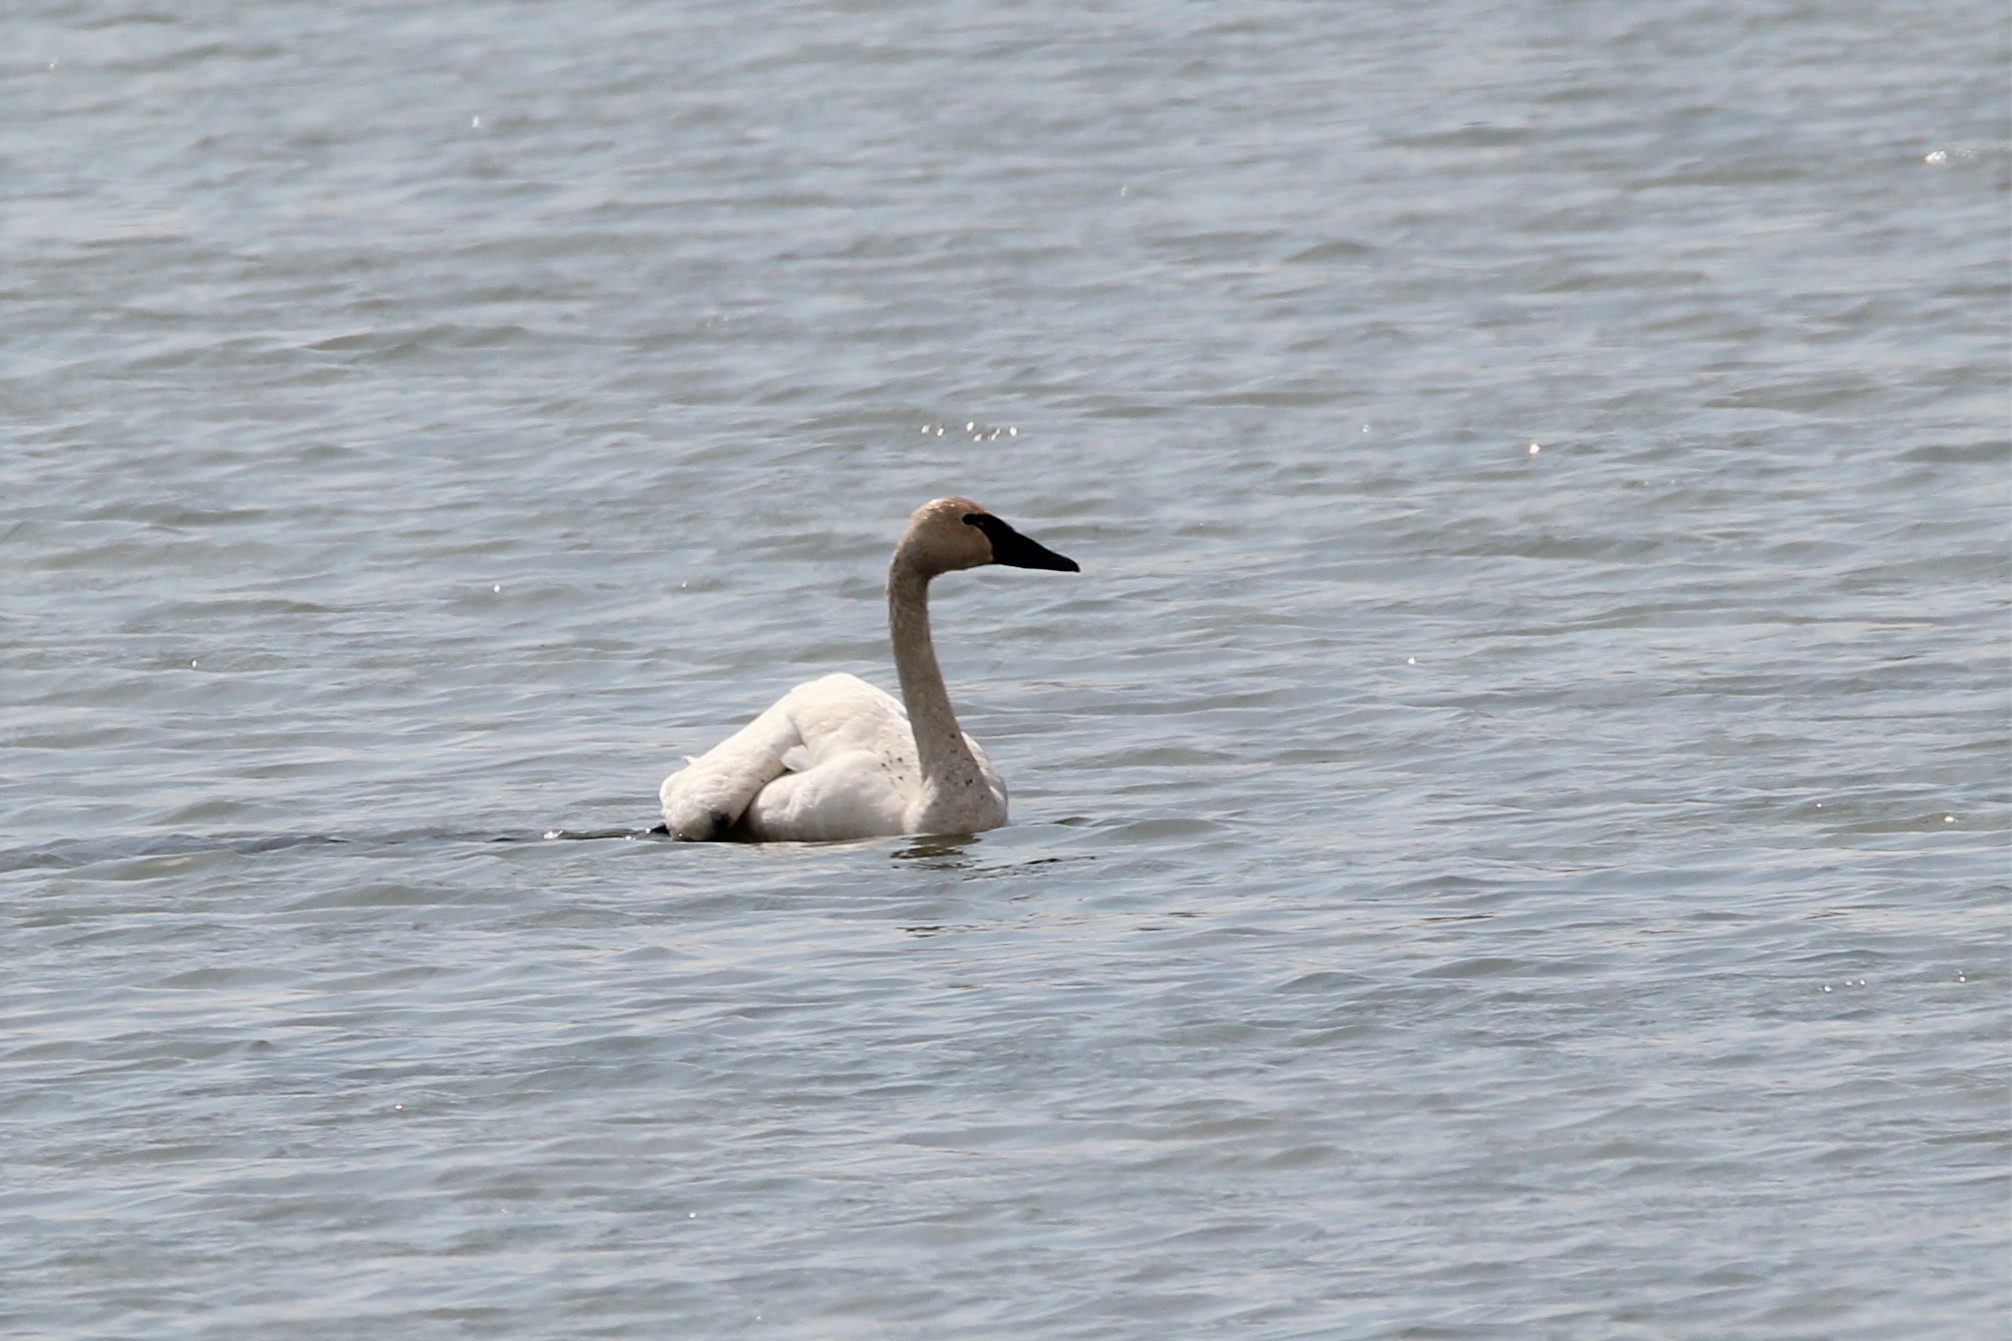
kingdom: Animalia
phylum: Chordata
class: Aves
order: Anseriformes
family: Anatidae
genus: Cygnus
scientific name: Cygnus buccinator
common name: Trumpeter swan
